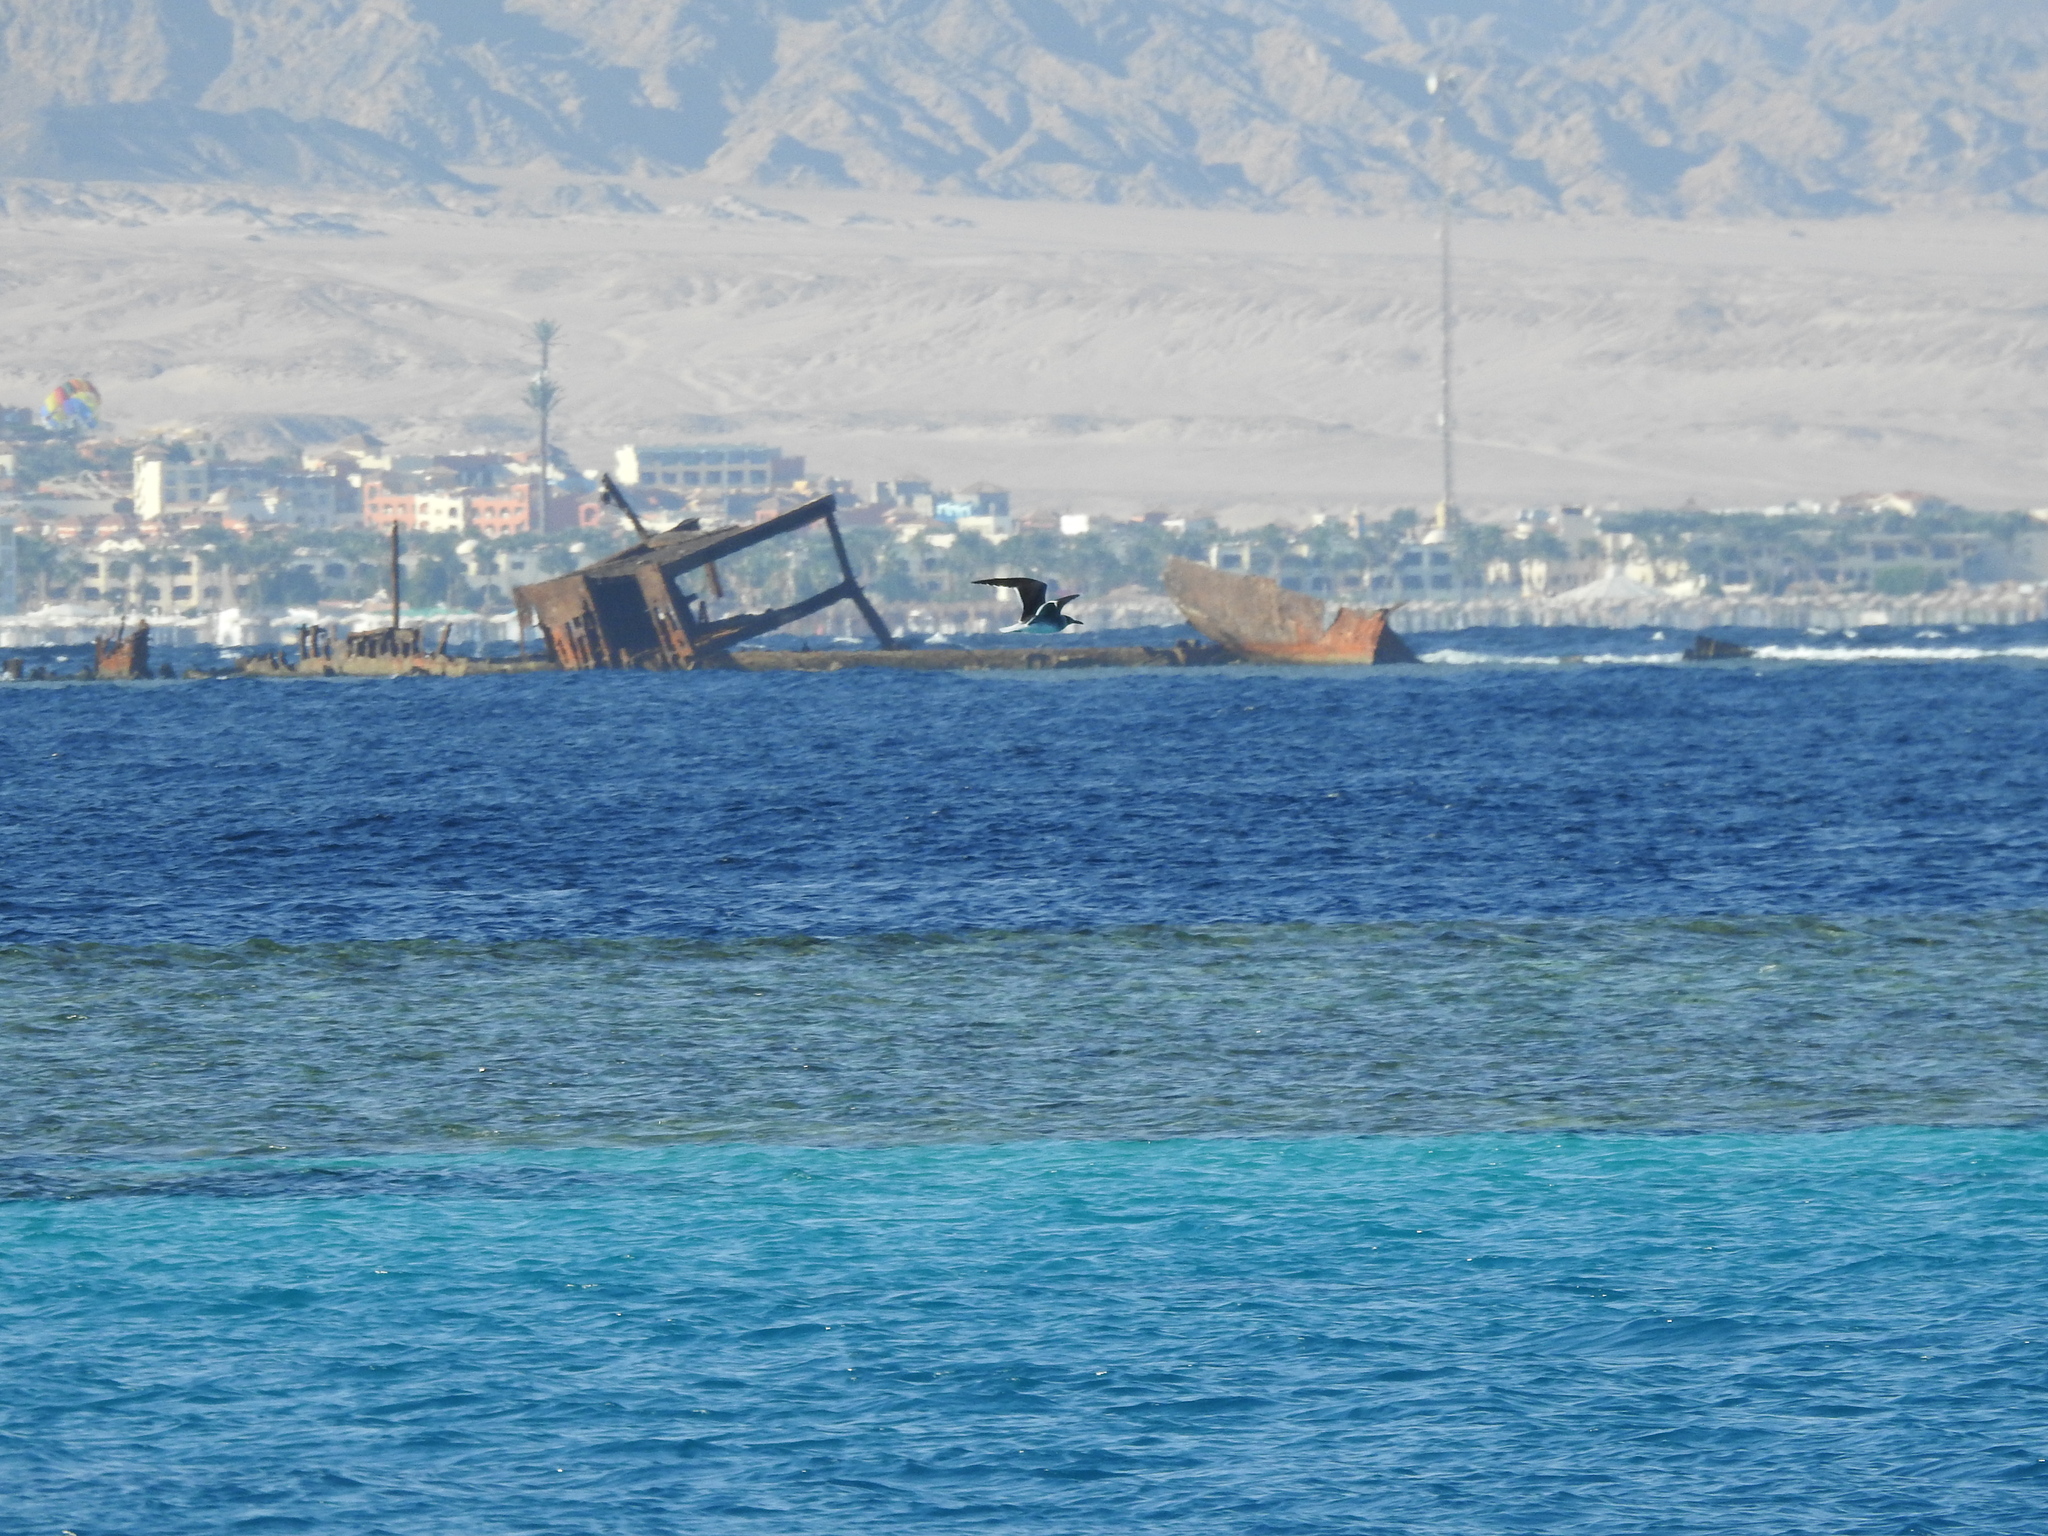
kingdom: Animalia
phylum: Chordata
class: Aves
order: Charadriiformes
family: Laridae
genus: Ichthyaetus
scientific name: Ichthyaetus leucophthalmus
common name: White-eyed gull
